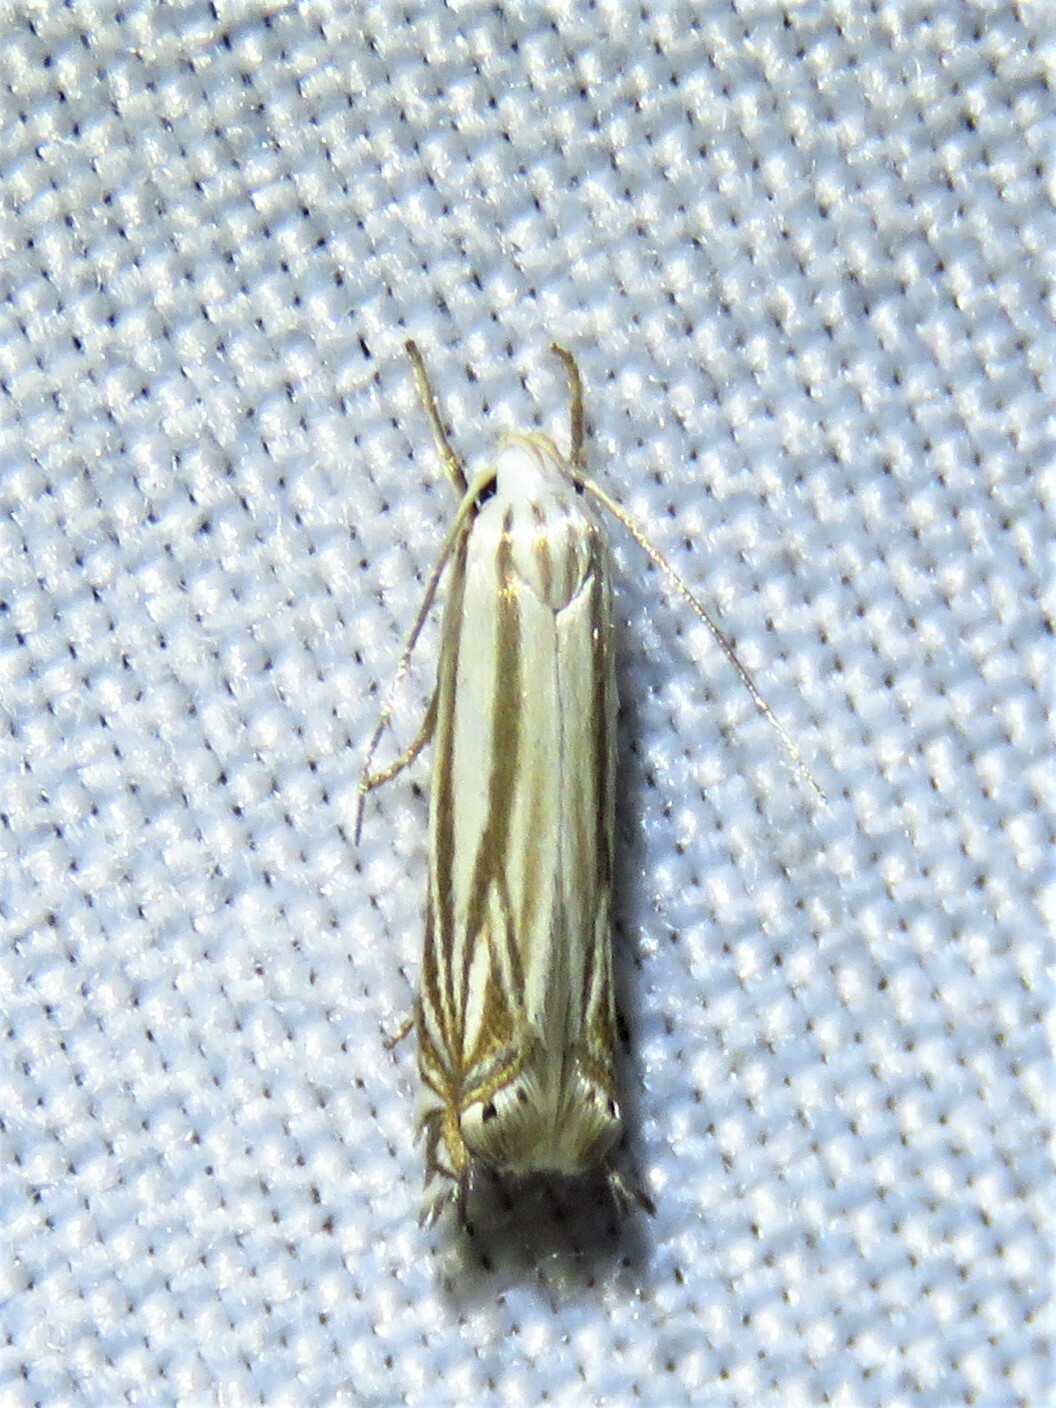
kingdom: Animalia
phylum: Arthropoda
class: Insecta
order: Lepidoptera
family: Gelechiidae
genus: Polyhymno
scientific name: Polyhymno luteostrigella
